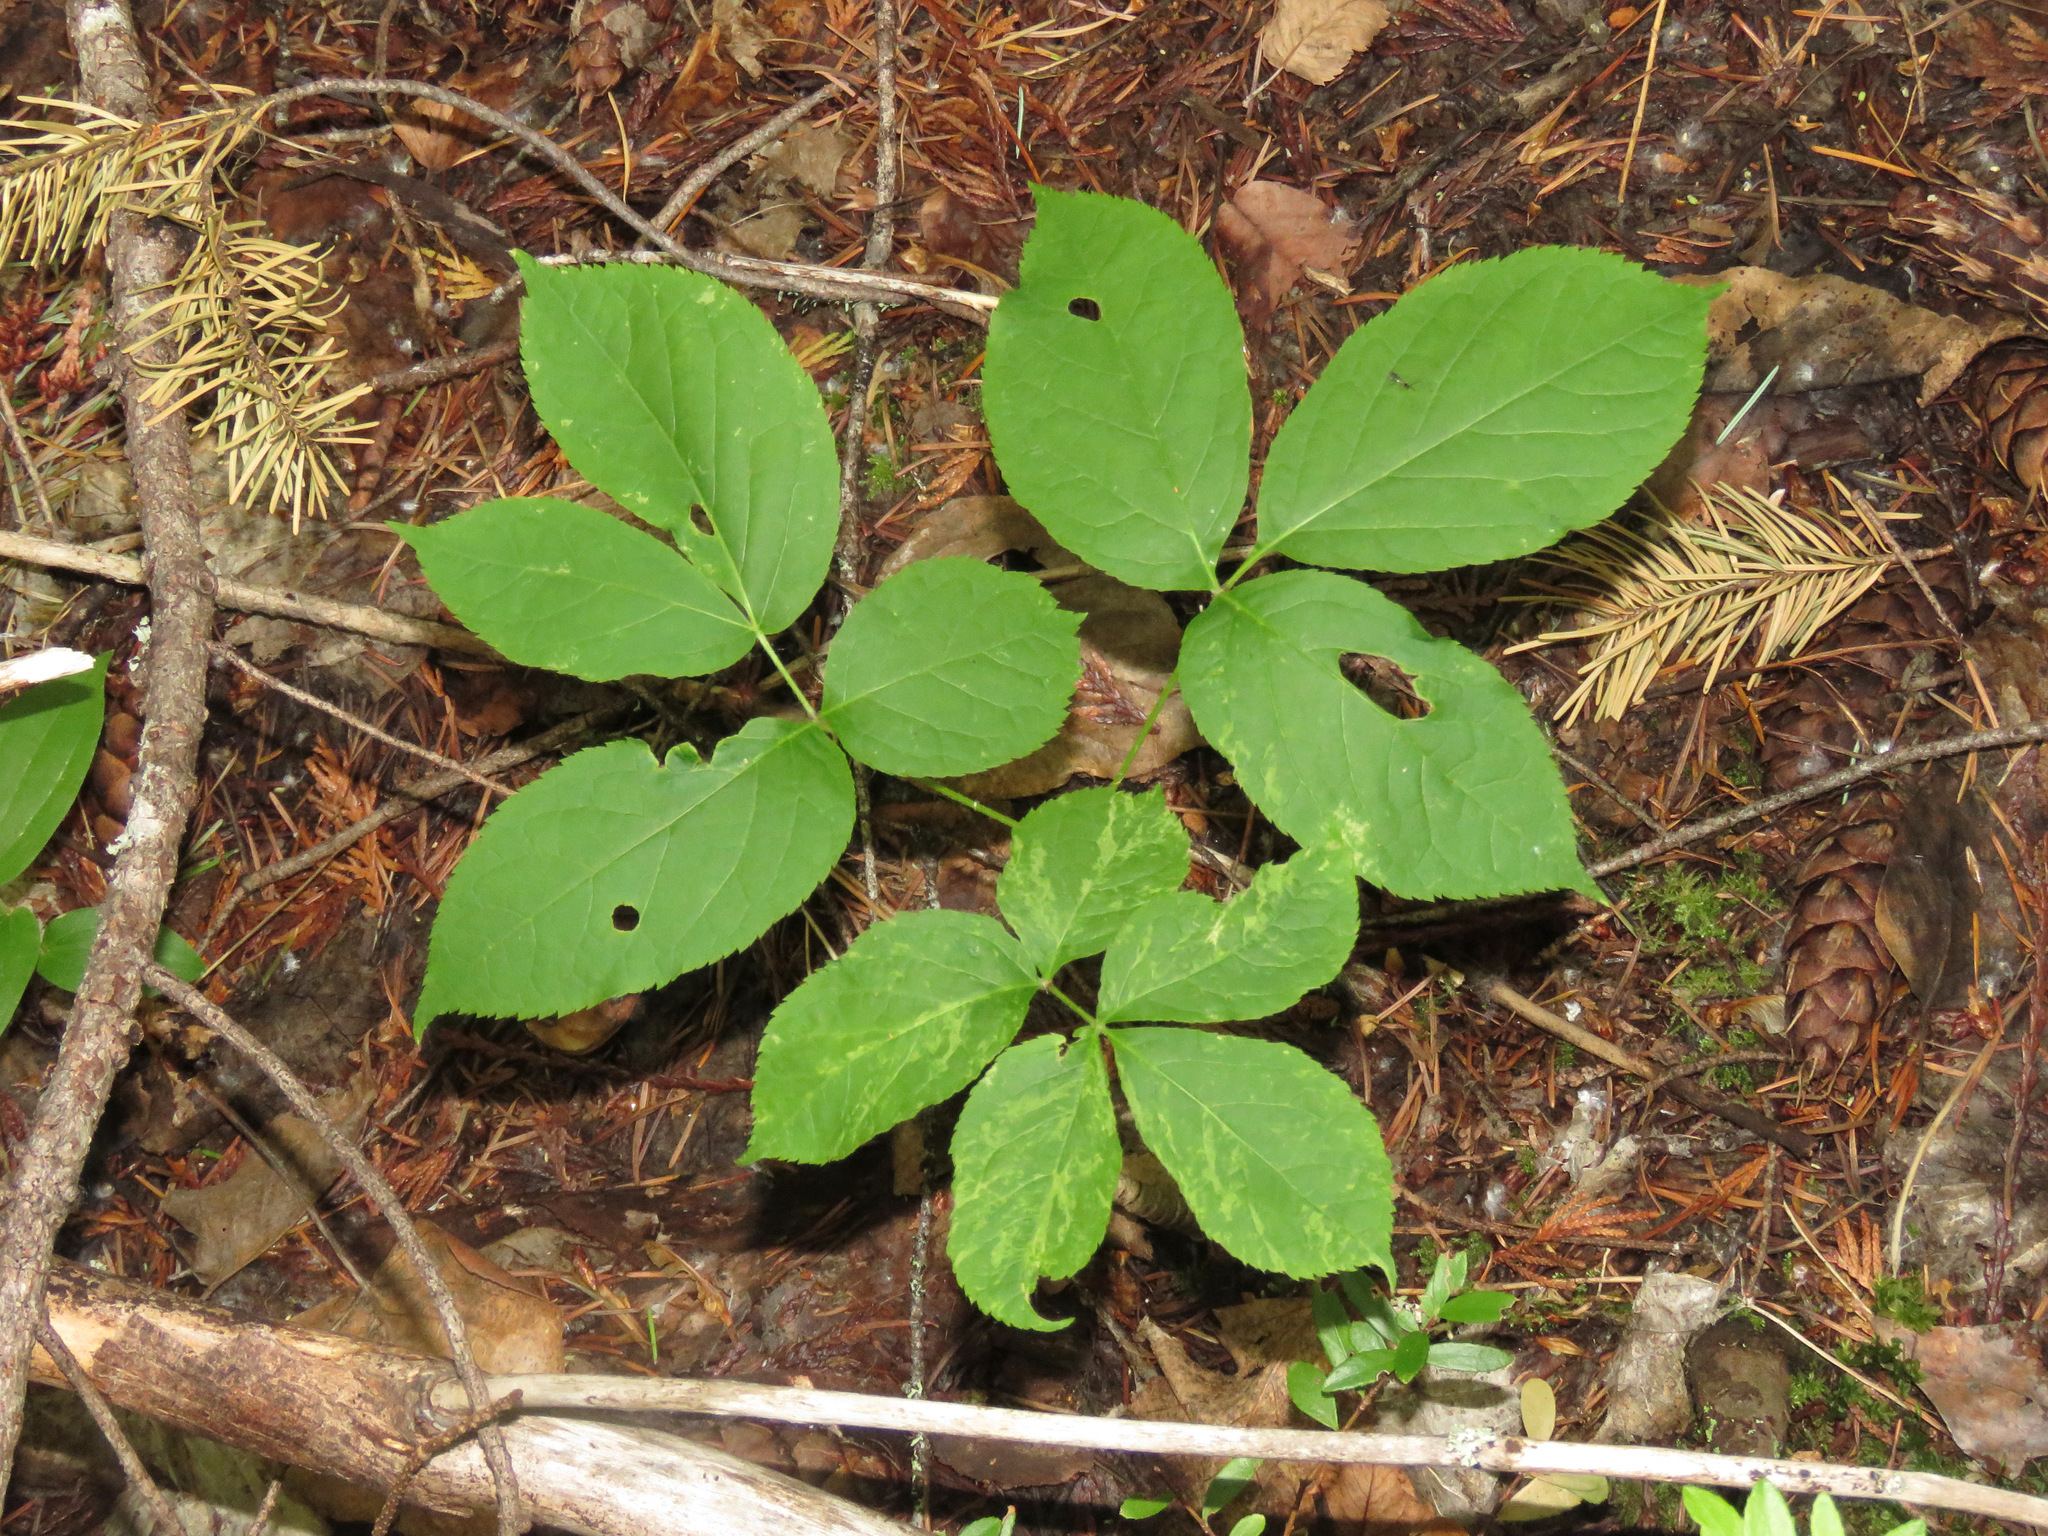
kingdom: Plantae
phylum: Tracheophyta
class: Magnoliopsida
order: Apiales
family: Araliaceae
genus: Aralia
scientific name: Aralia nudicaulis
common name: Wild sarsaparilla
